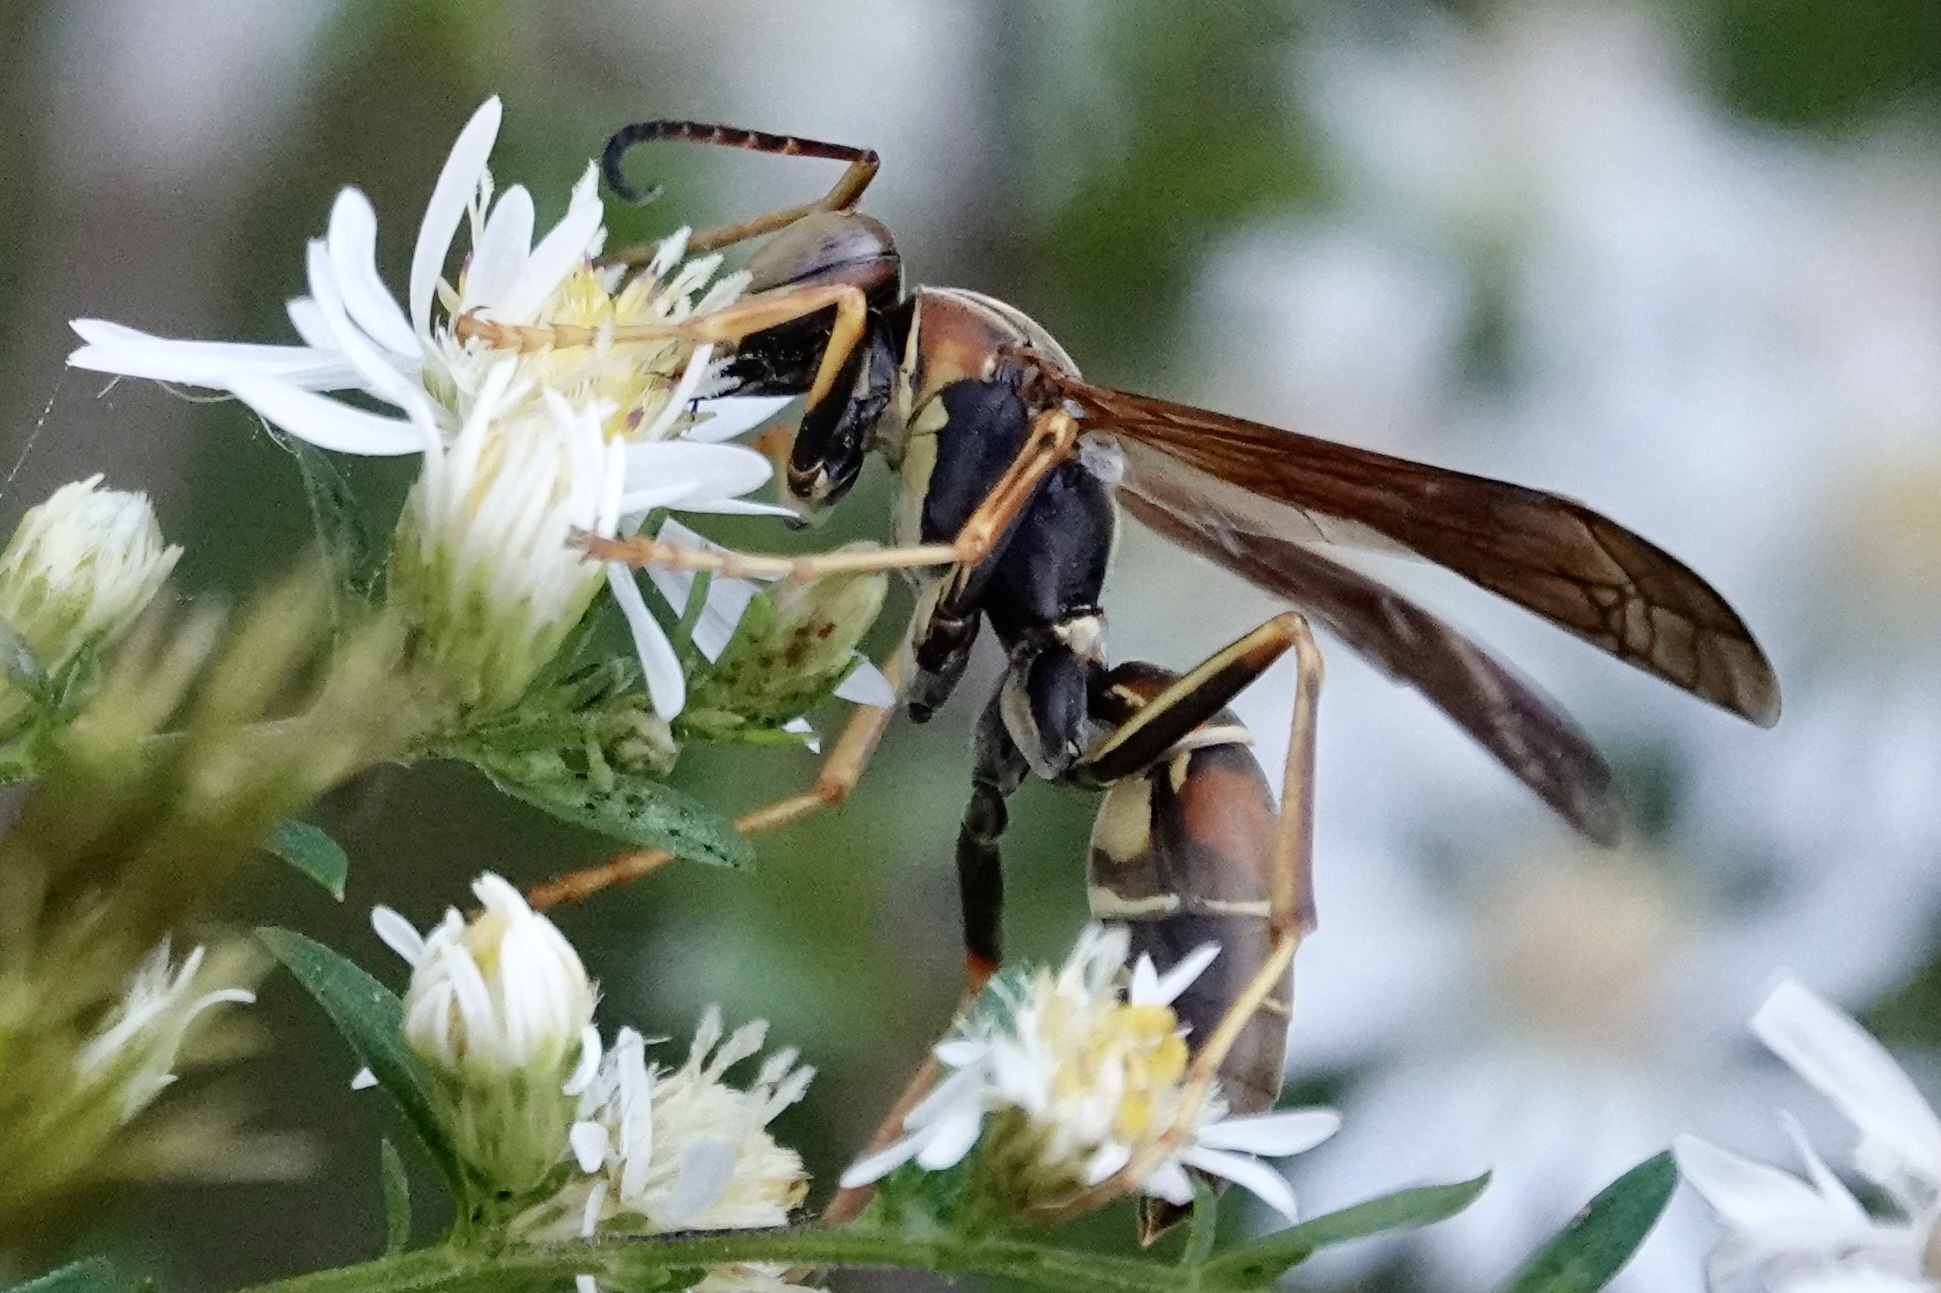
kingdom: Animalia
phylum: Arthropoda
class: Insecta
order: Hymenoptera
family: Eumenidae
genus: Polistes
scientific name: Polistes fuscatus
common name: Dark paper wasp
